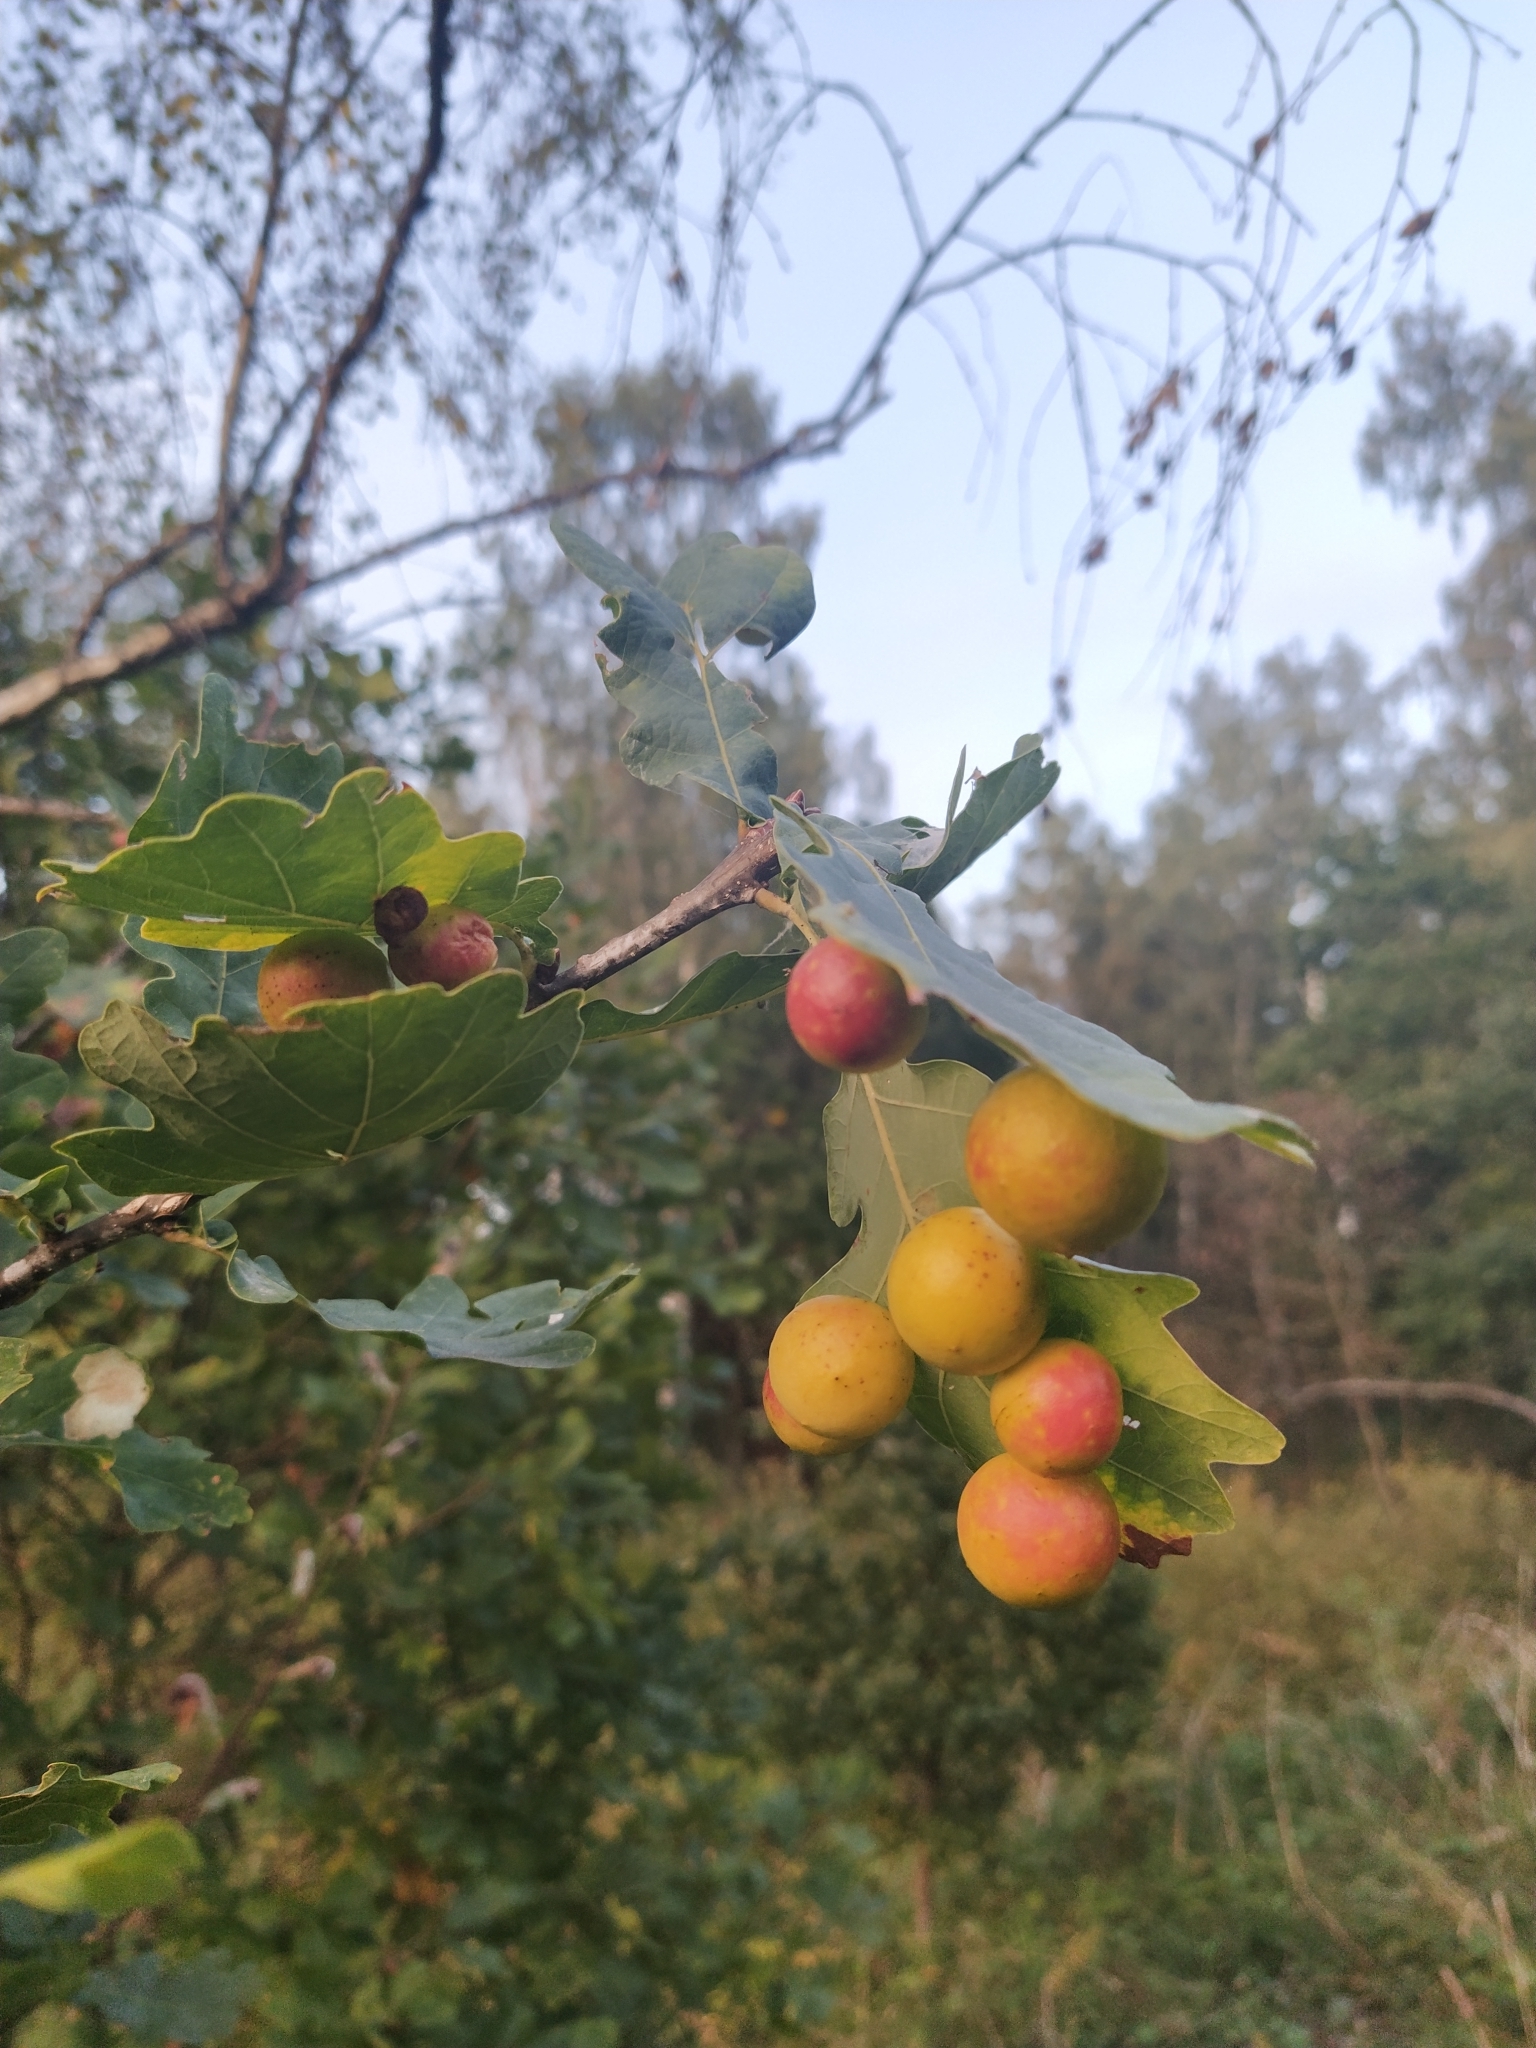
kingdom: Animalia
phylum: Arthropoda
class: Insecta
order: Hymenoptera
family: Cynipidae
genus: Cynips
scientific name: Cynips quercusfolii
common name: Cherry gall
